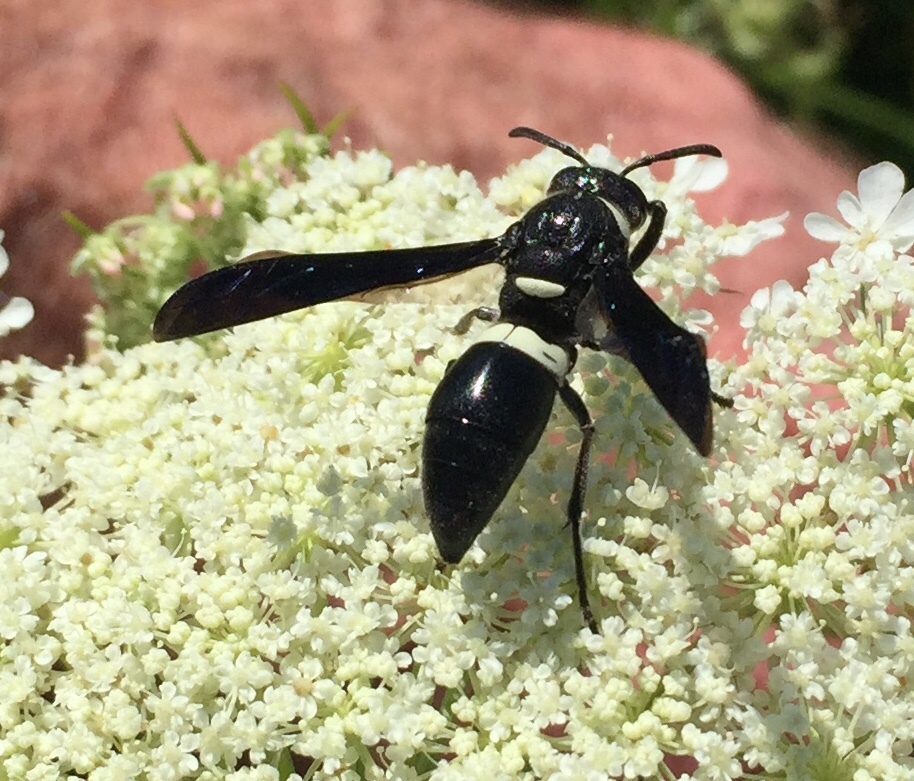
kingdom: Animalia
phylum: Arthropoda
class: Insecta
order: Hymenoptera
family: Eumenidae
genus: Monobia
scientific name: Monobia quadridens
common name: Four-toothed mason wasp
